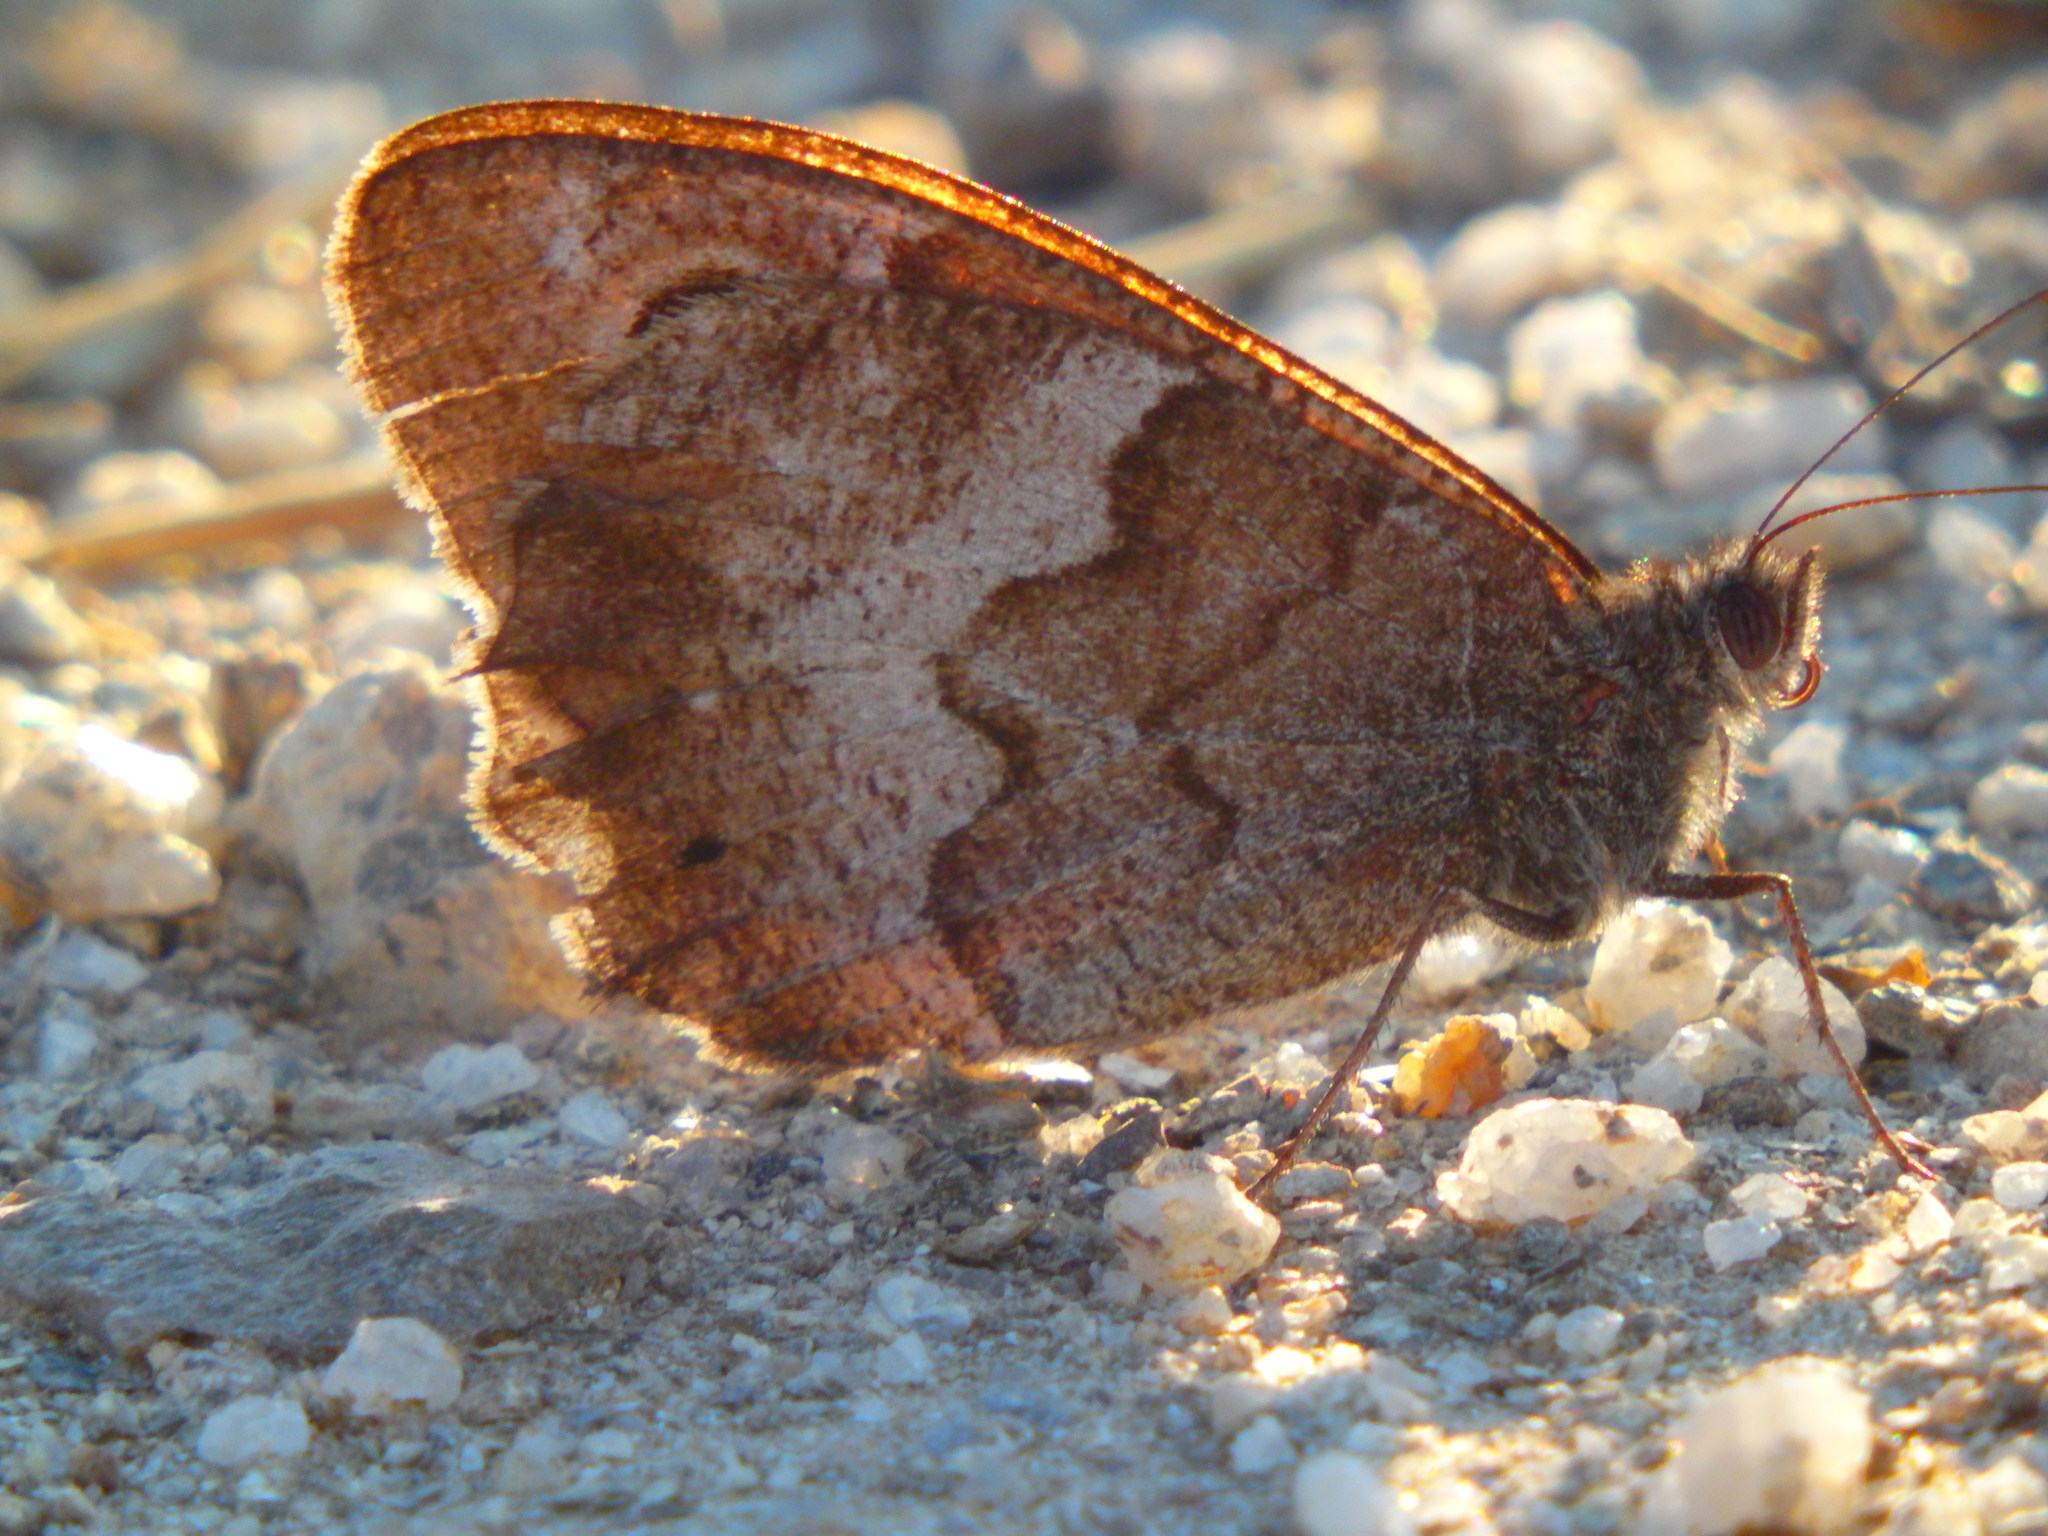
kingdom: Animalia
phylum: Arthropoda
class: Insecta
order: Lepidoptera
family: Nymphalidae
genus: Hipparchia
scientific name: Hipparchia statilinus
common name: Tree grayling
